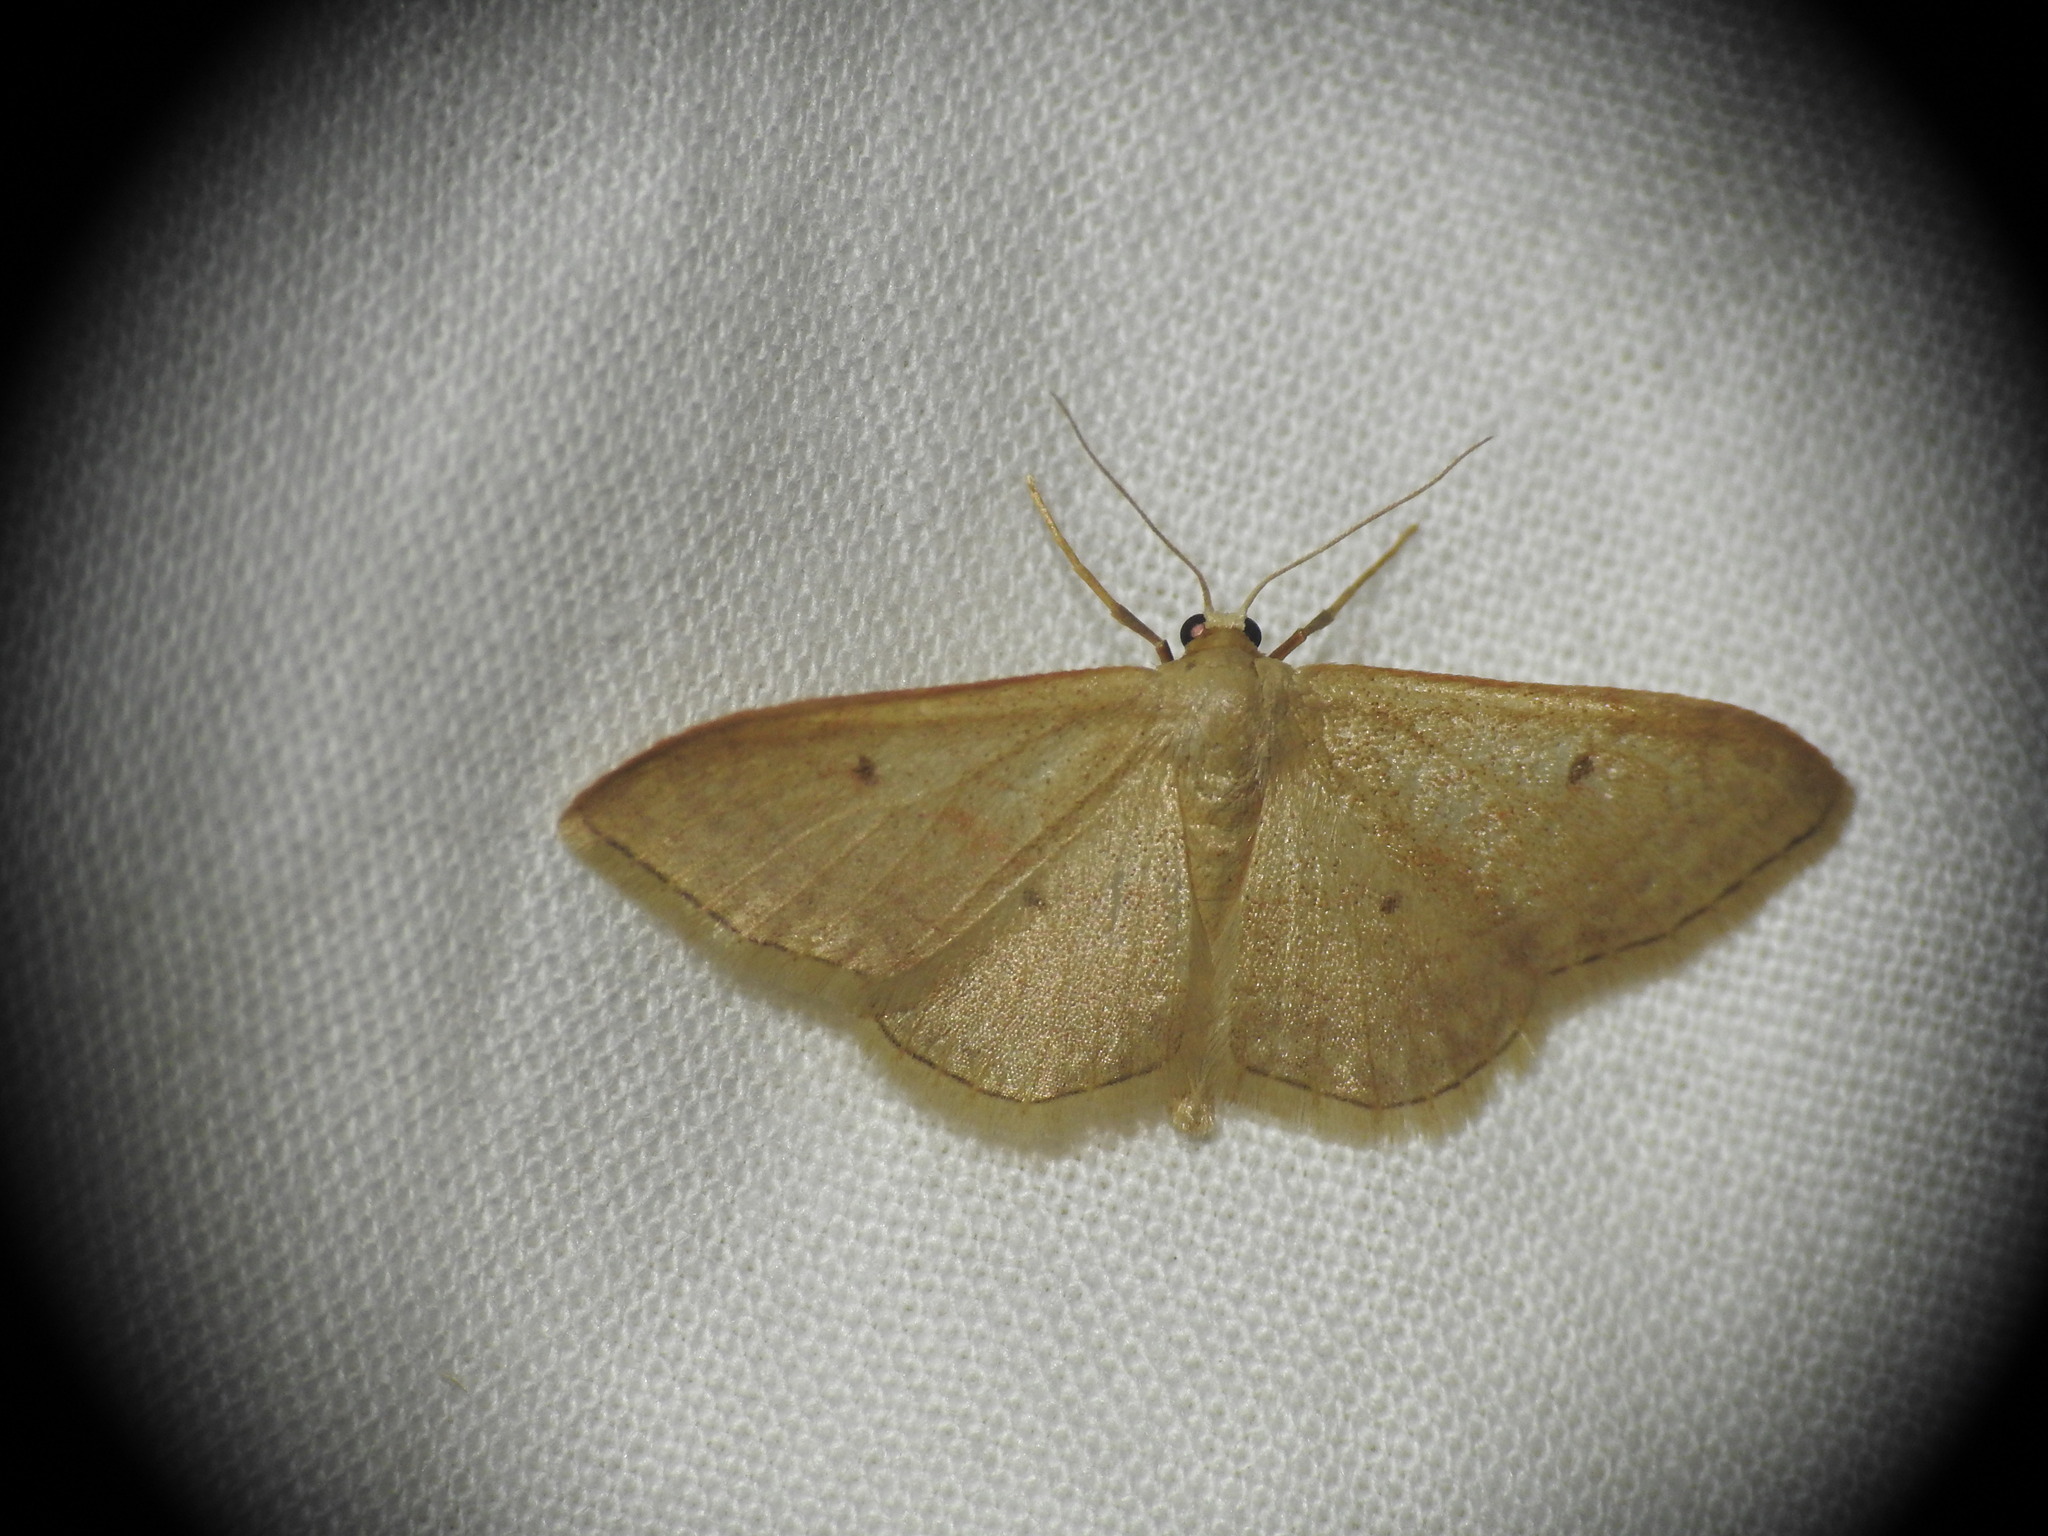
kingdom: Animalia
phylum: Arthropoda
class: Insecta
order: Lepidoptera
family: Geometridae
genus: Idaea
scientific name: Idaea bilinearia
